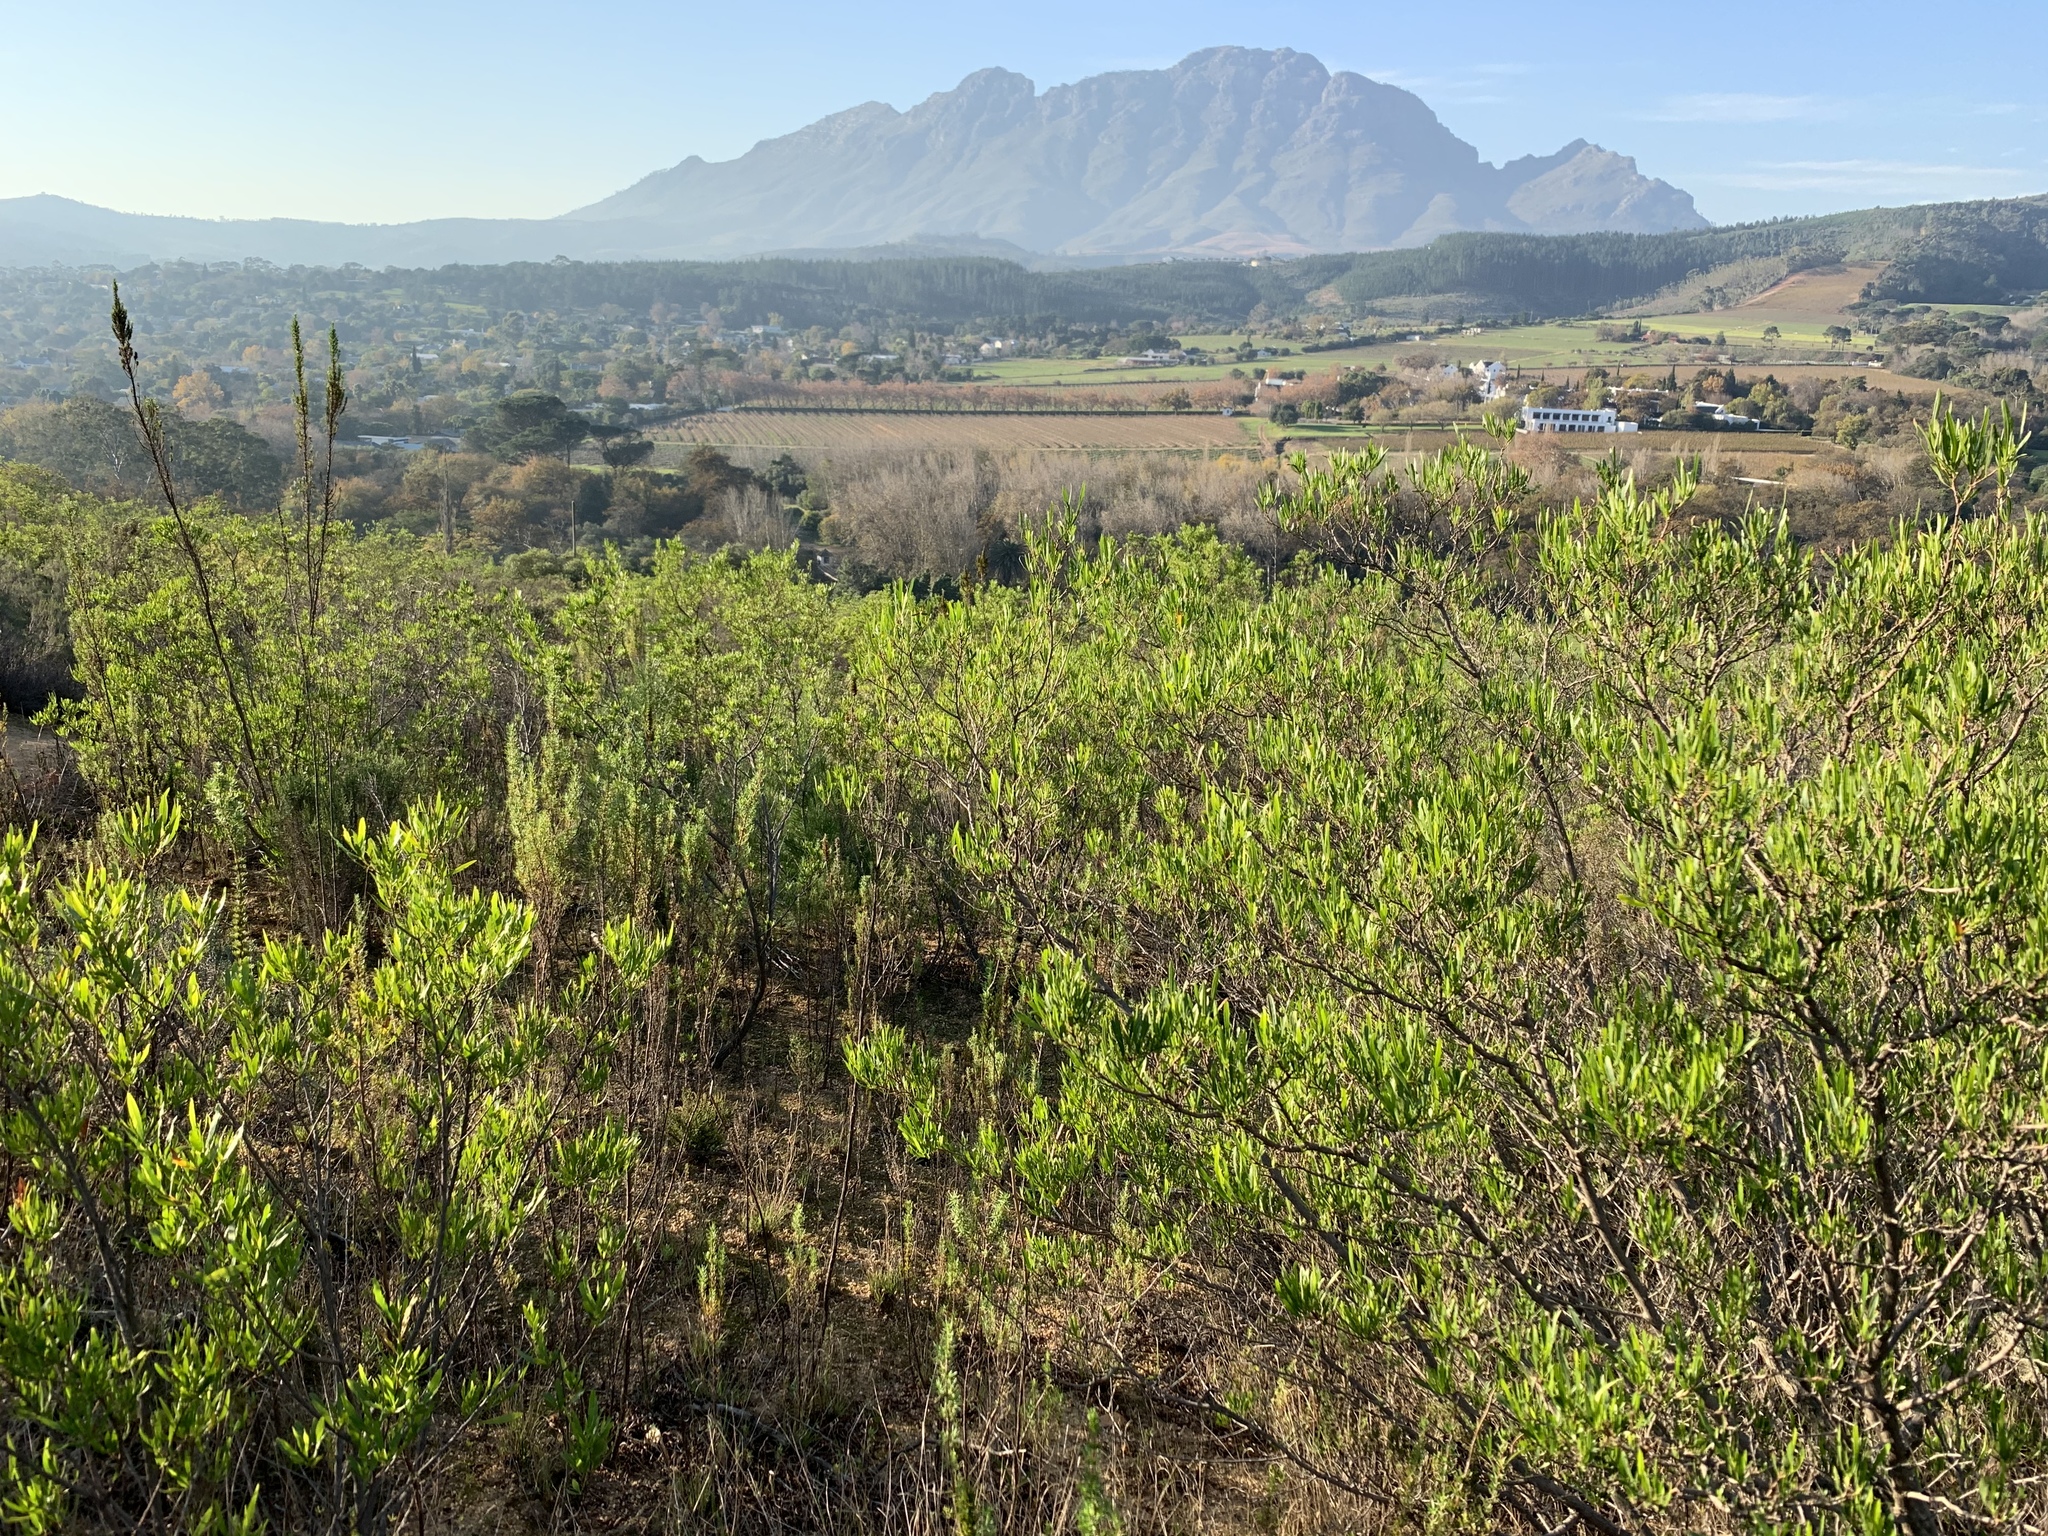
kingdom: Plantae
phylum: Tracheophyta
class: Magnoliopsida
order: Sapindales
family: Sapindaceae
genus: Dodonaea
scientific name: Dodonaea viscosa
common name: Hopbush
